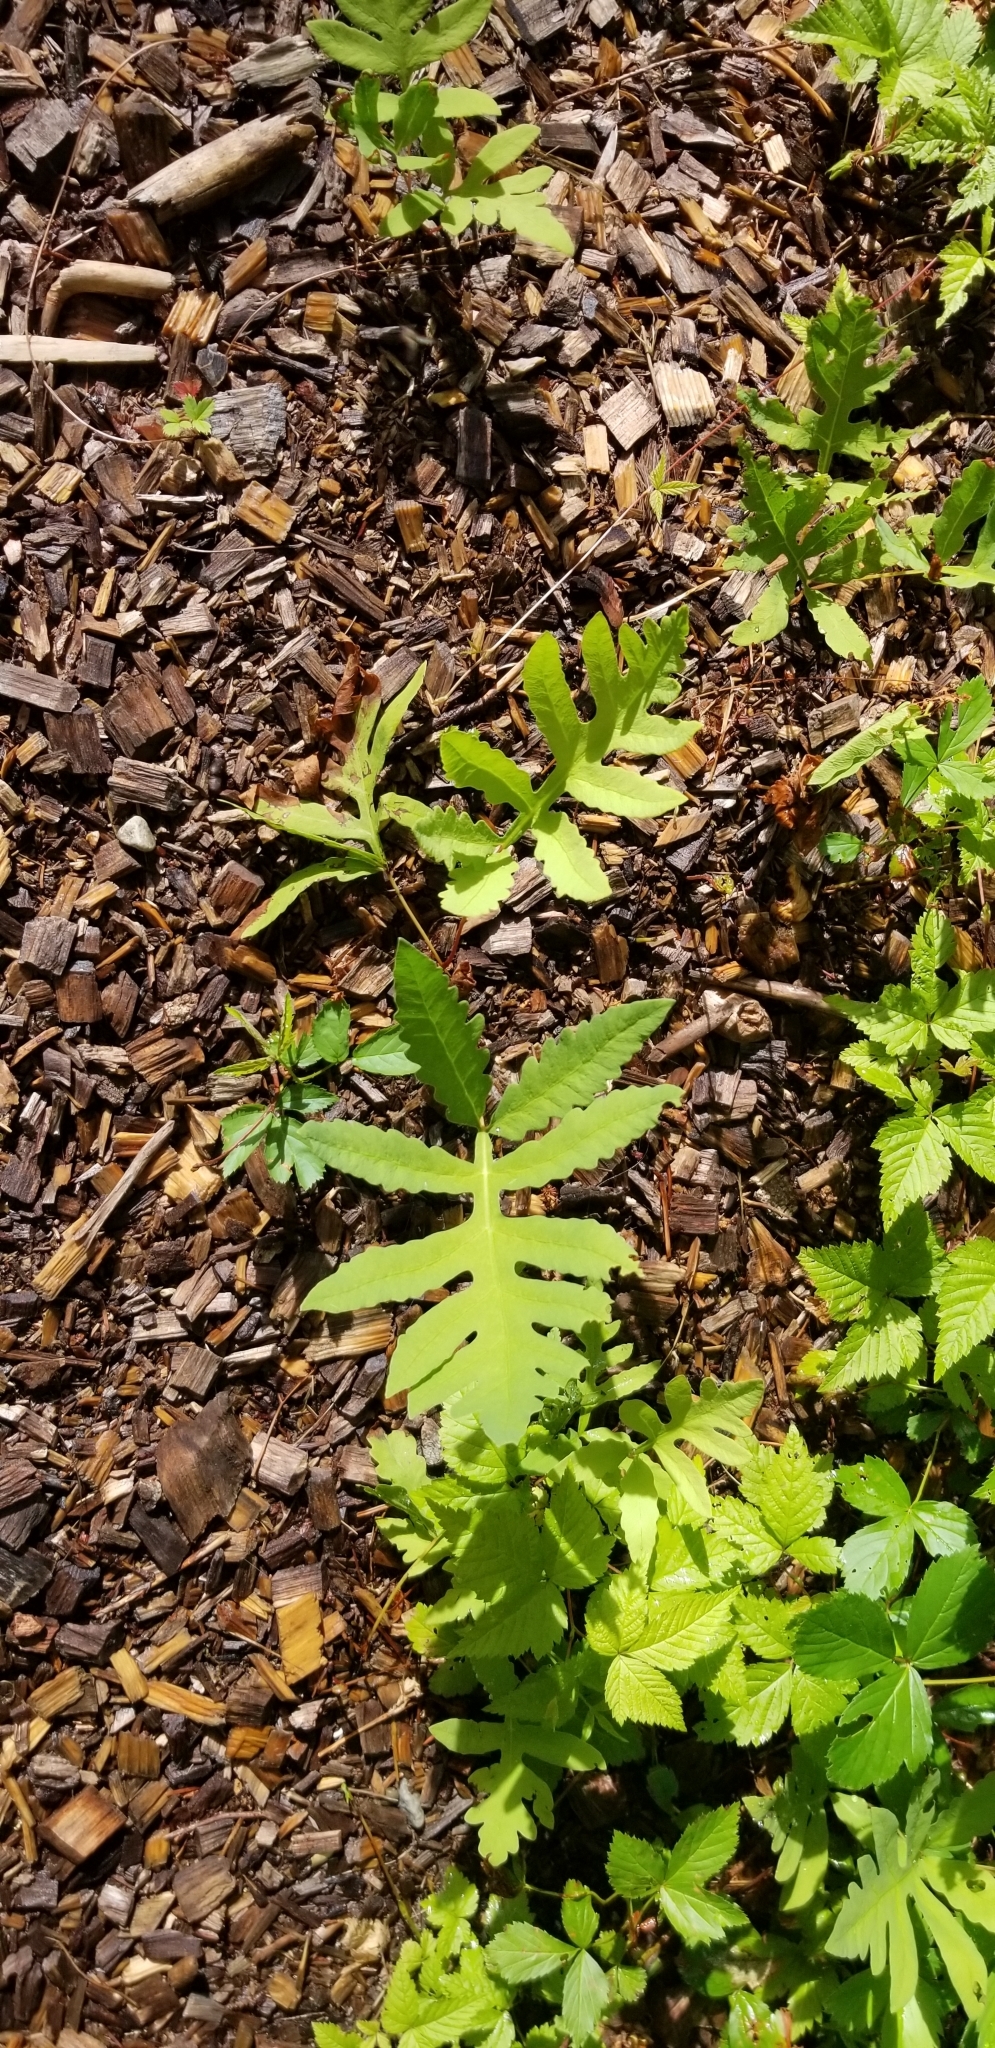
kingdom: Plantae
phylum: Tracheophyta
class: Polypodiopsida
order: Polypodiales
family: Onocleaceae
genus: Onoclea
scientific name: Onoclea sensibilis
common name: Sensitive fern
